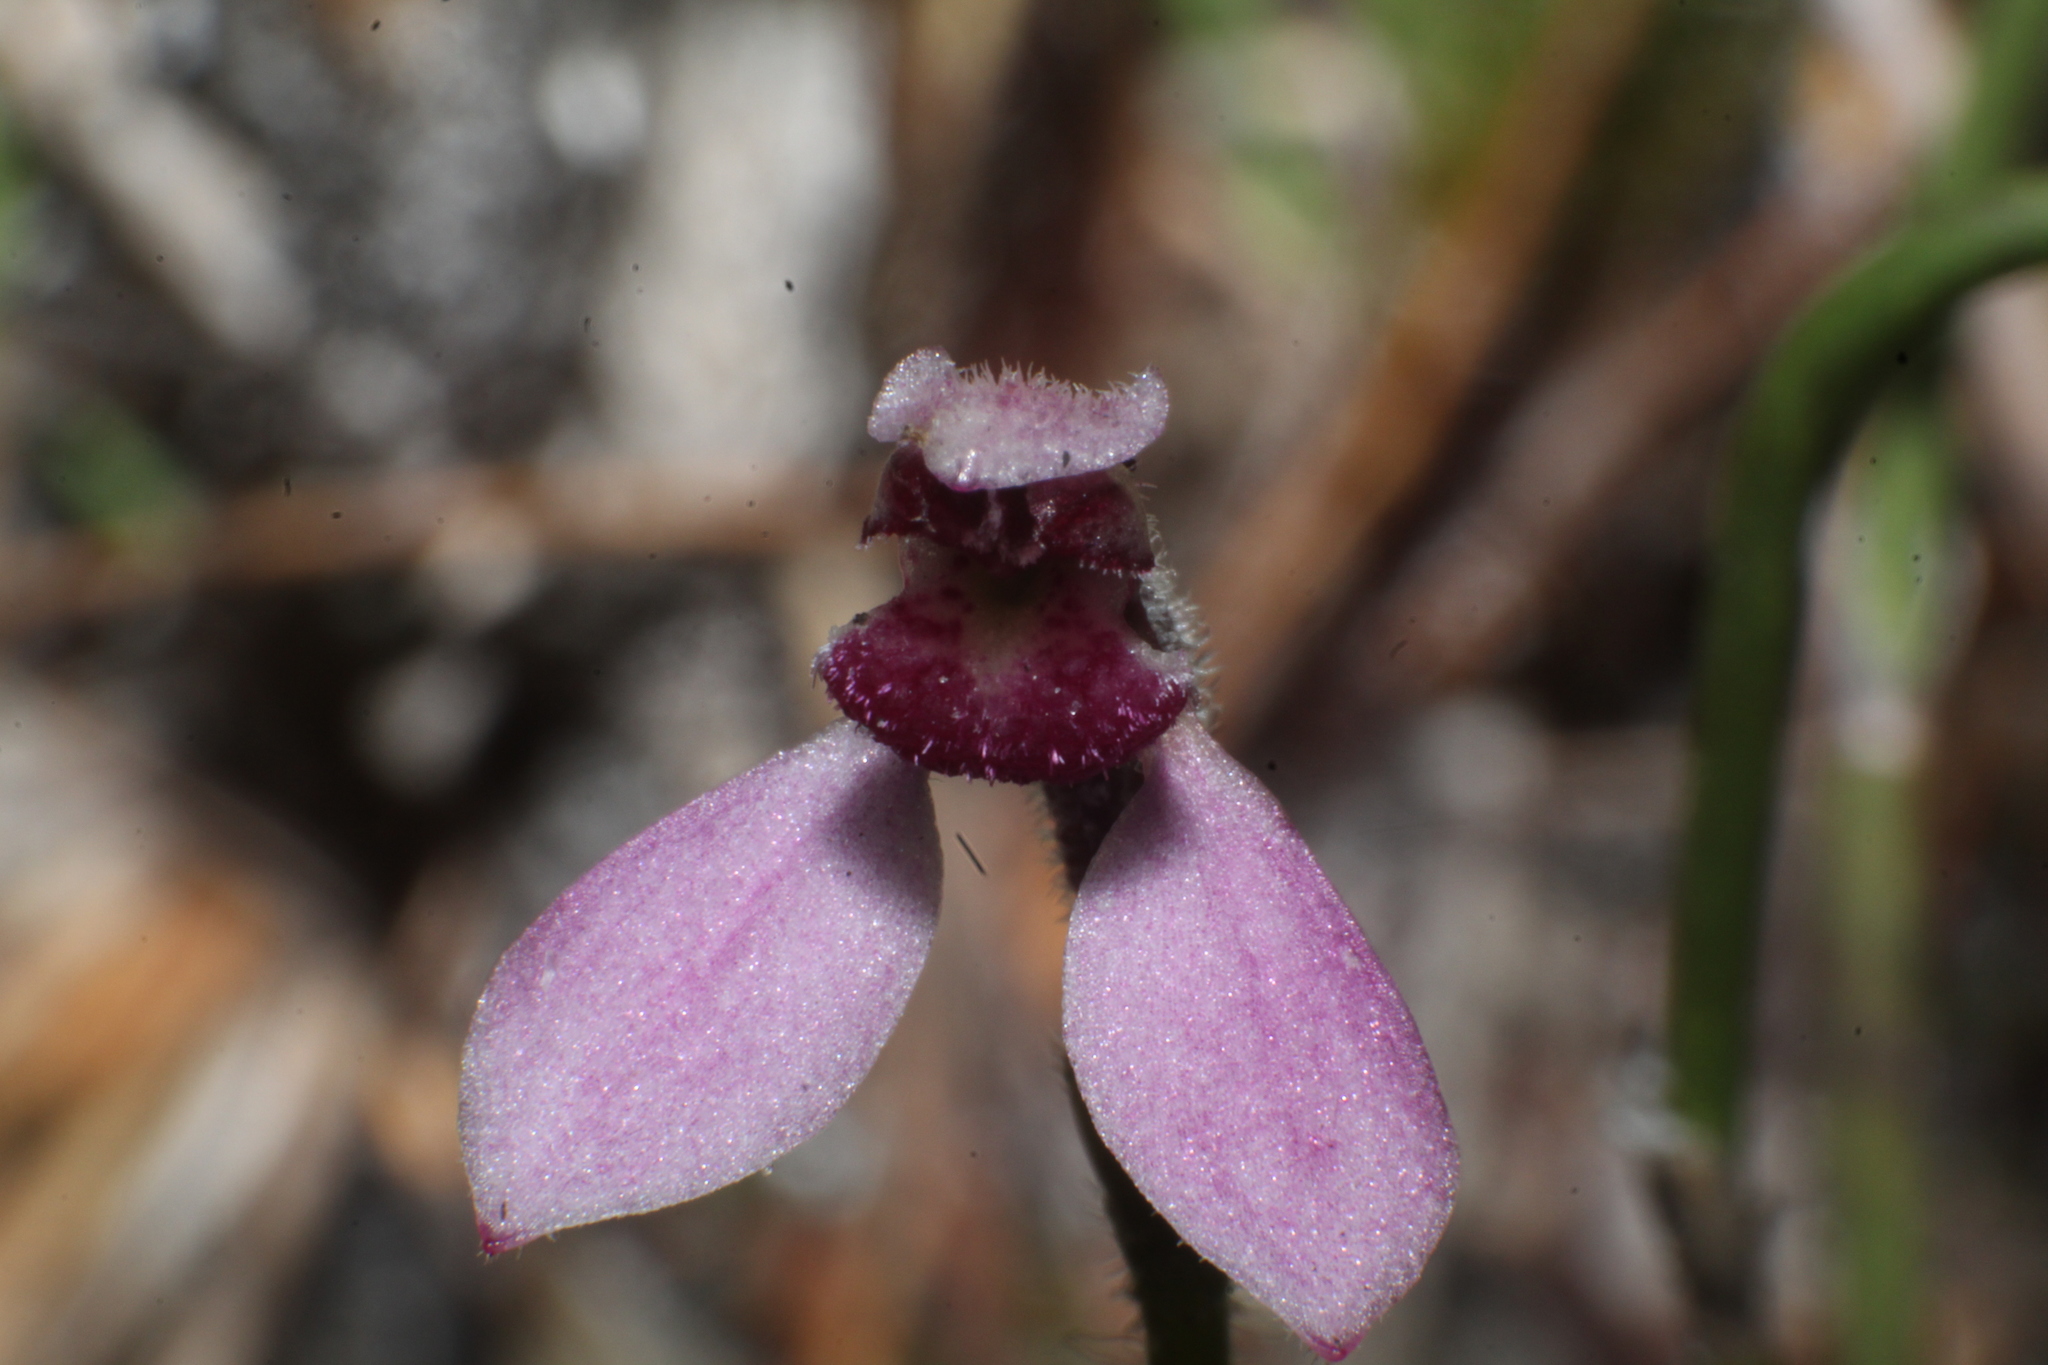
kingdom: Plantae
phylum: Tracheophyta
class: Liliopsida
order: Asparagales
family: Orchidaceae
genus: Eriochilus
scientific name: Eriochilus scaber
